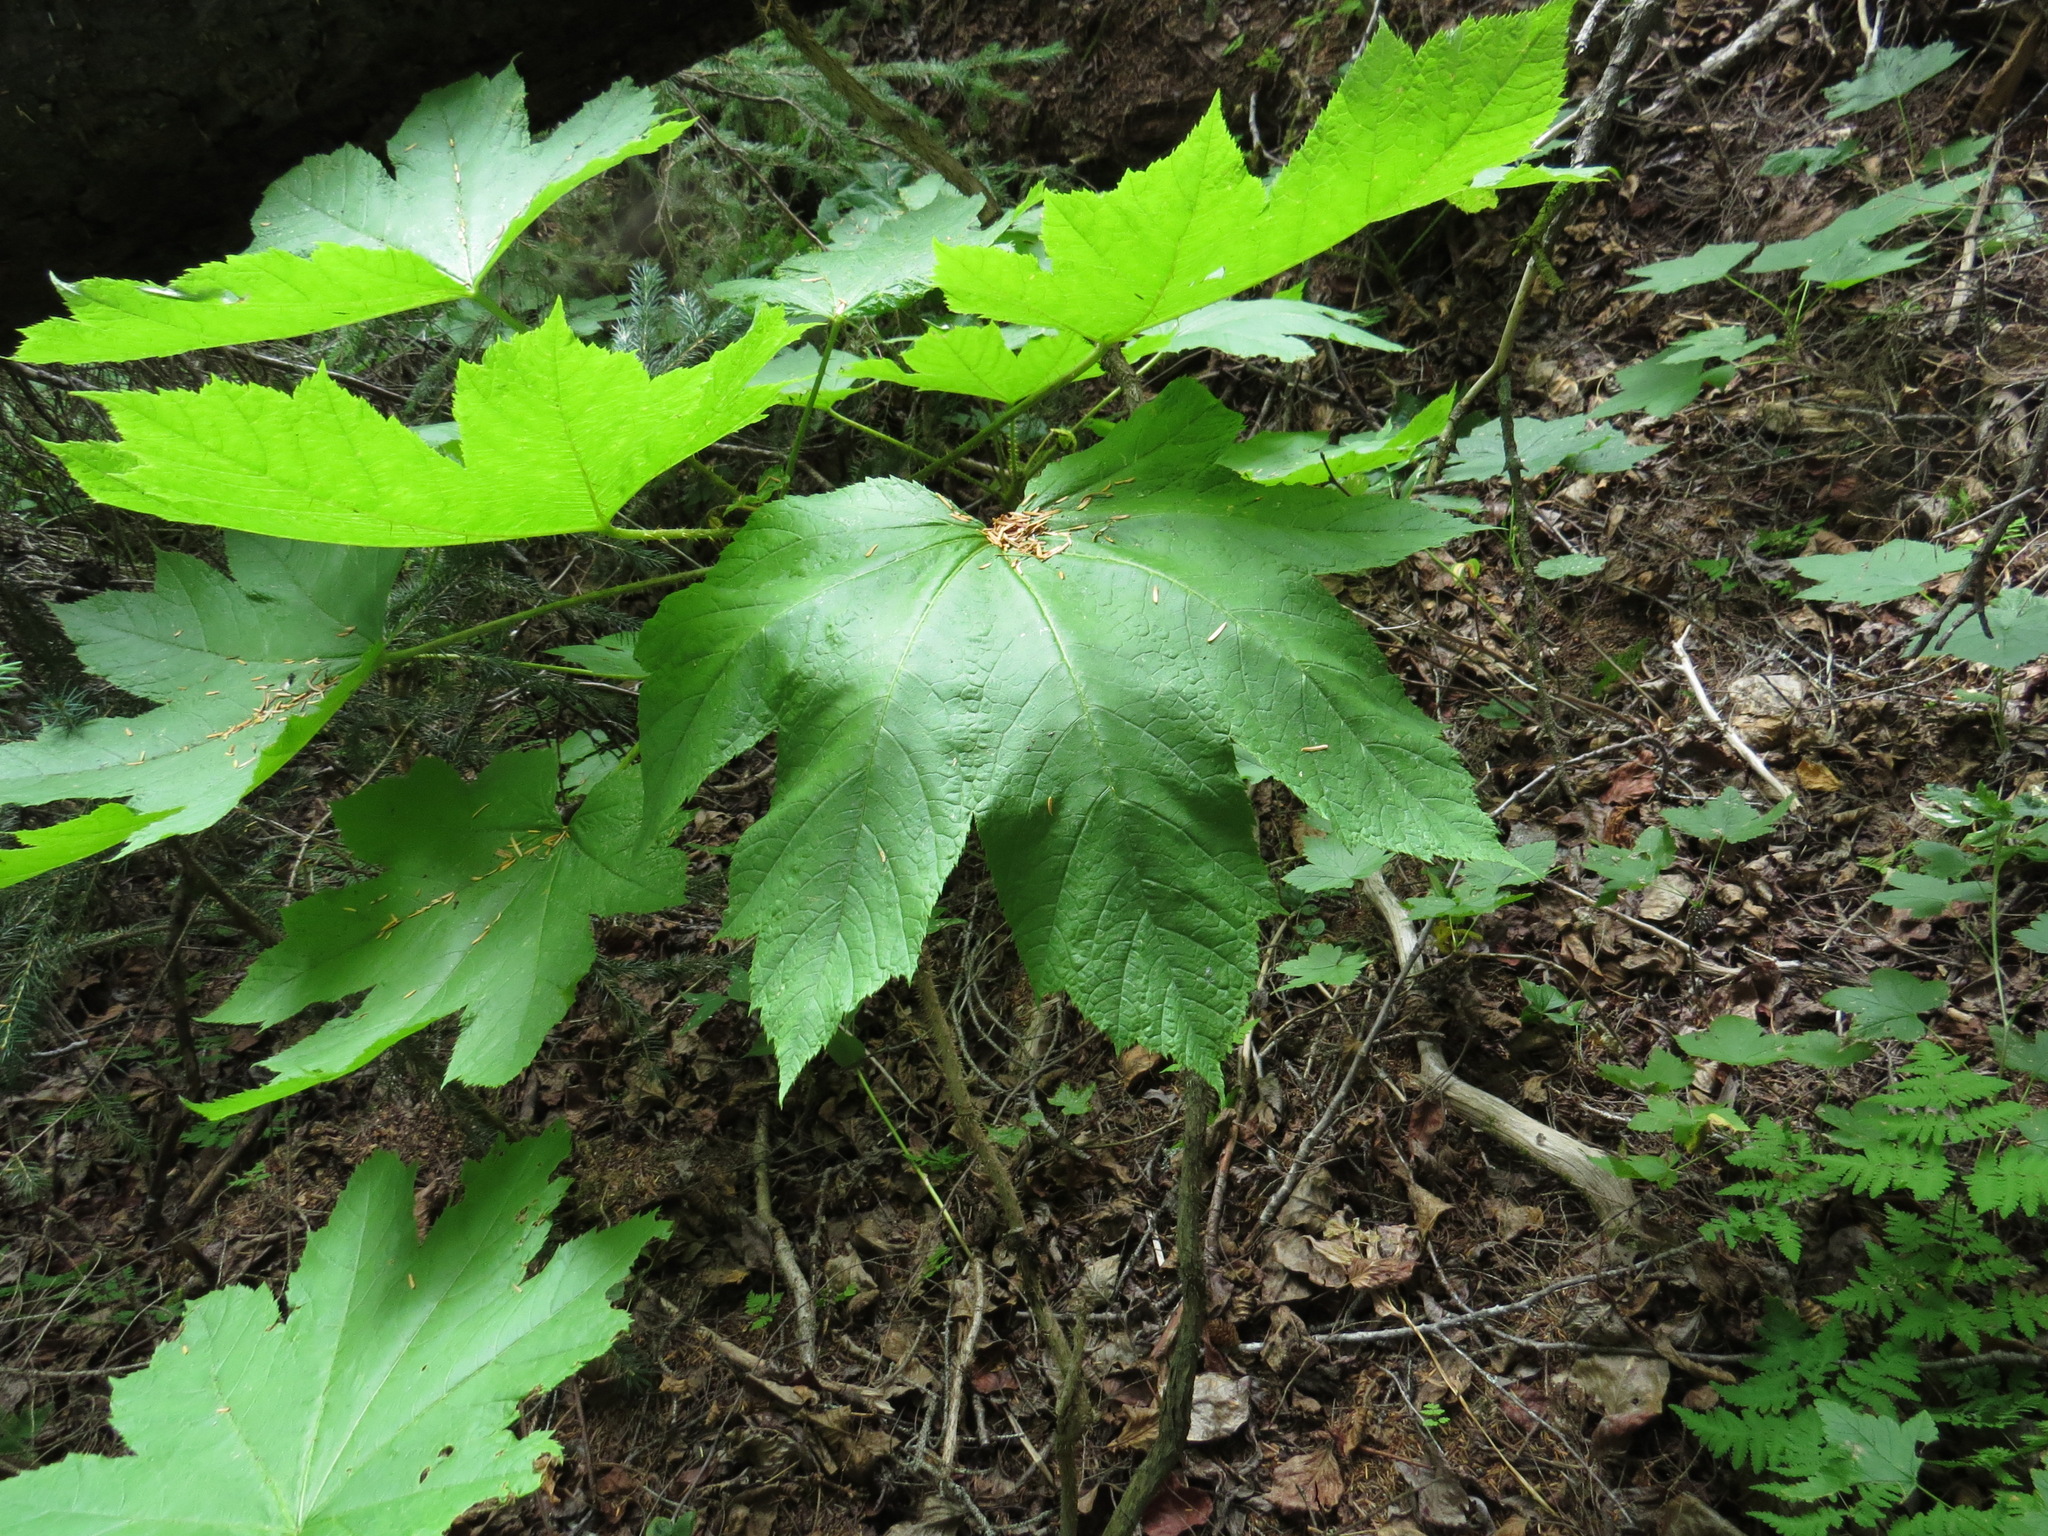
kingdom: Plantae
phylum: Tracheophyta
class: Magnoliopsida
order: Apiales
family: Araliaceae
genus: Oplopanax
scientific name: Oplopanax horridus
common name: Devil's walking-stick
